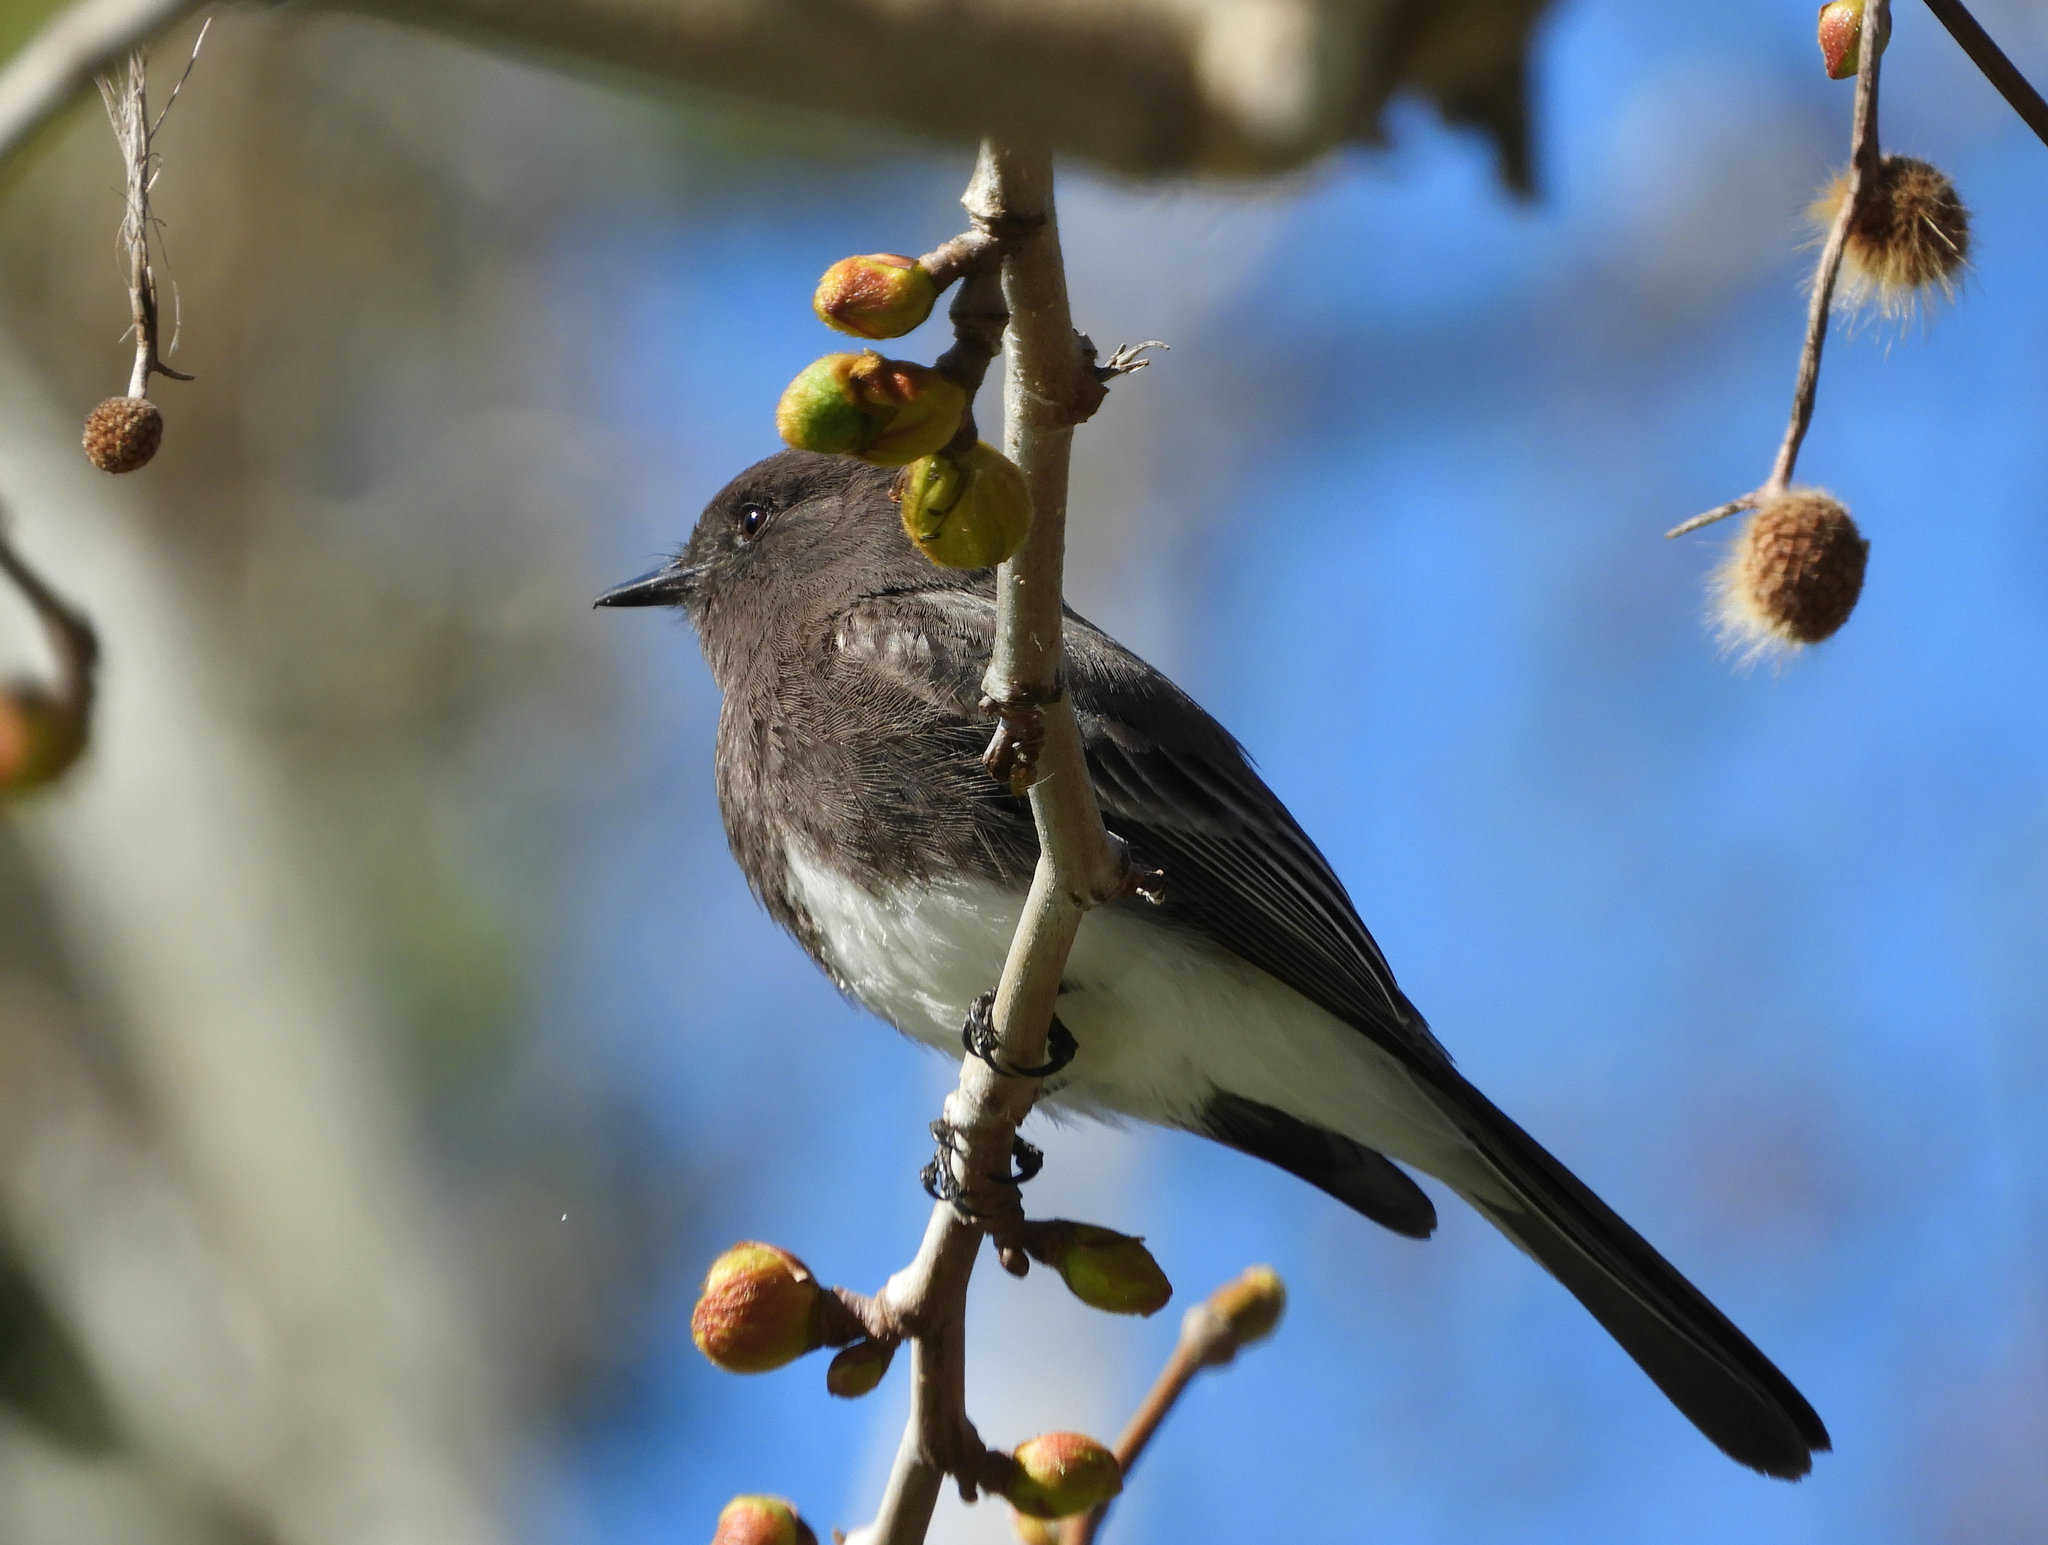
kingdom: Animalia
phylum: Chordata
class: Aves
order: Passeriformes
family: Tyrannidae
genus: Sayornis
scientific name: Sayornis nigricans
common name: Black phoebe
